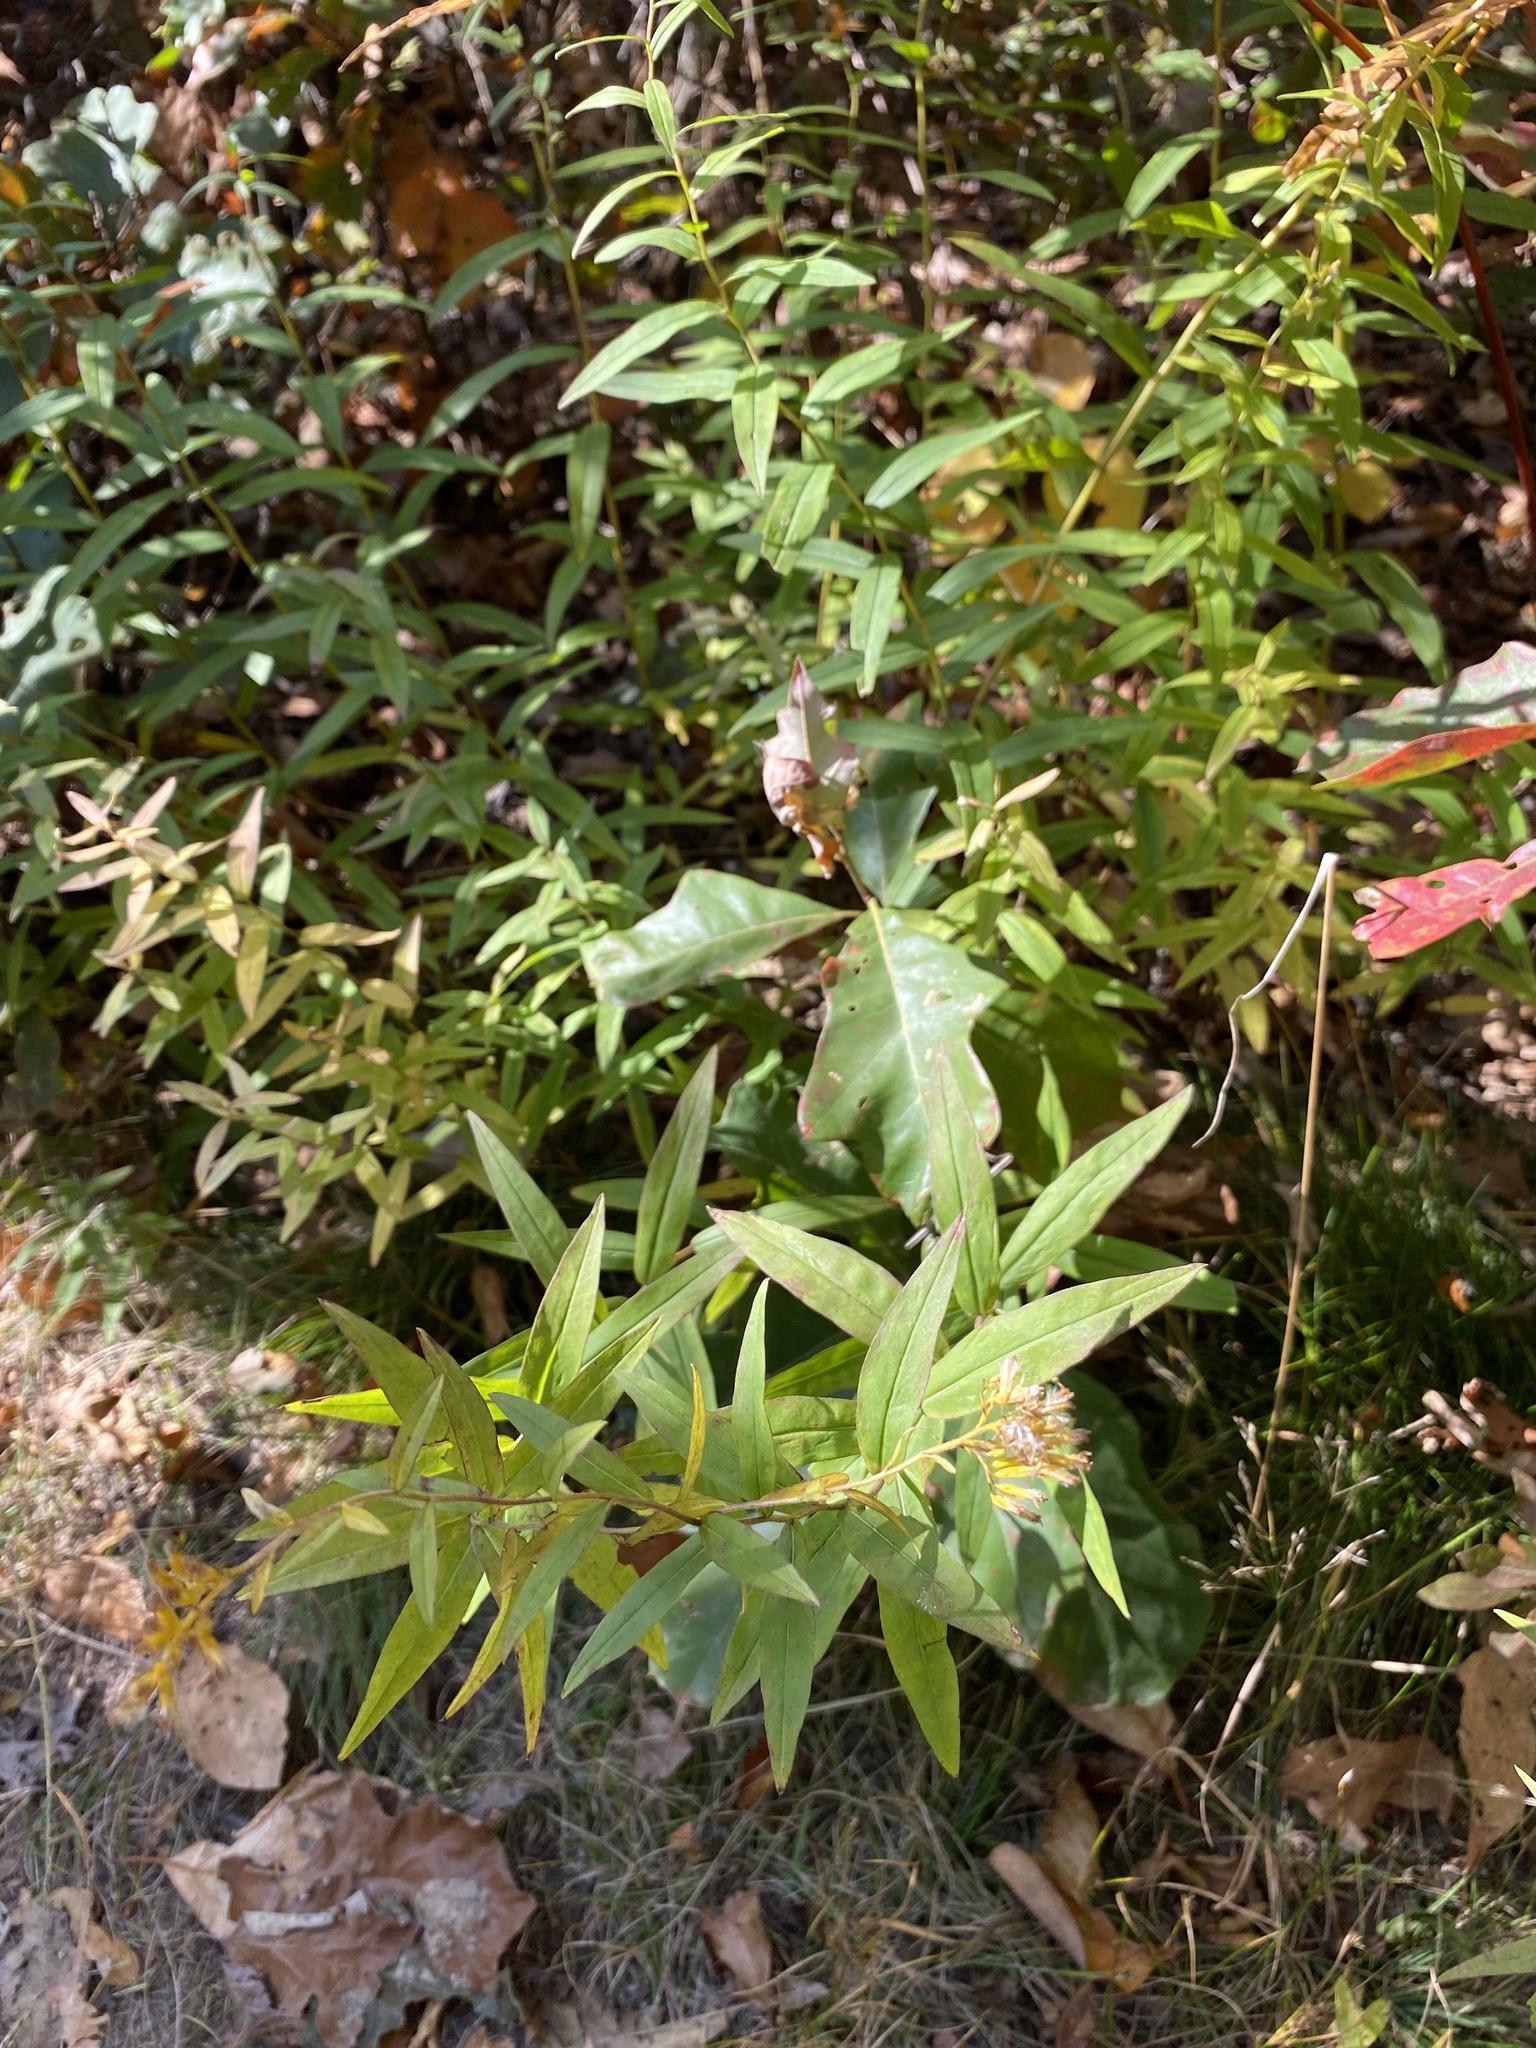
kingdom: Plantae
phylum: Tracheophyta
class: Magnoliopsida
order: Asterales
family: Asteraceae
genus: Solidago
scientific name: Solidago odora
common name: Anise-scented goldenrod
